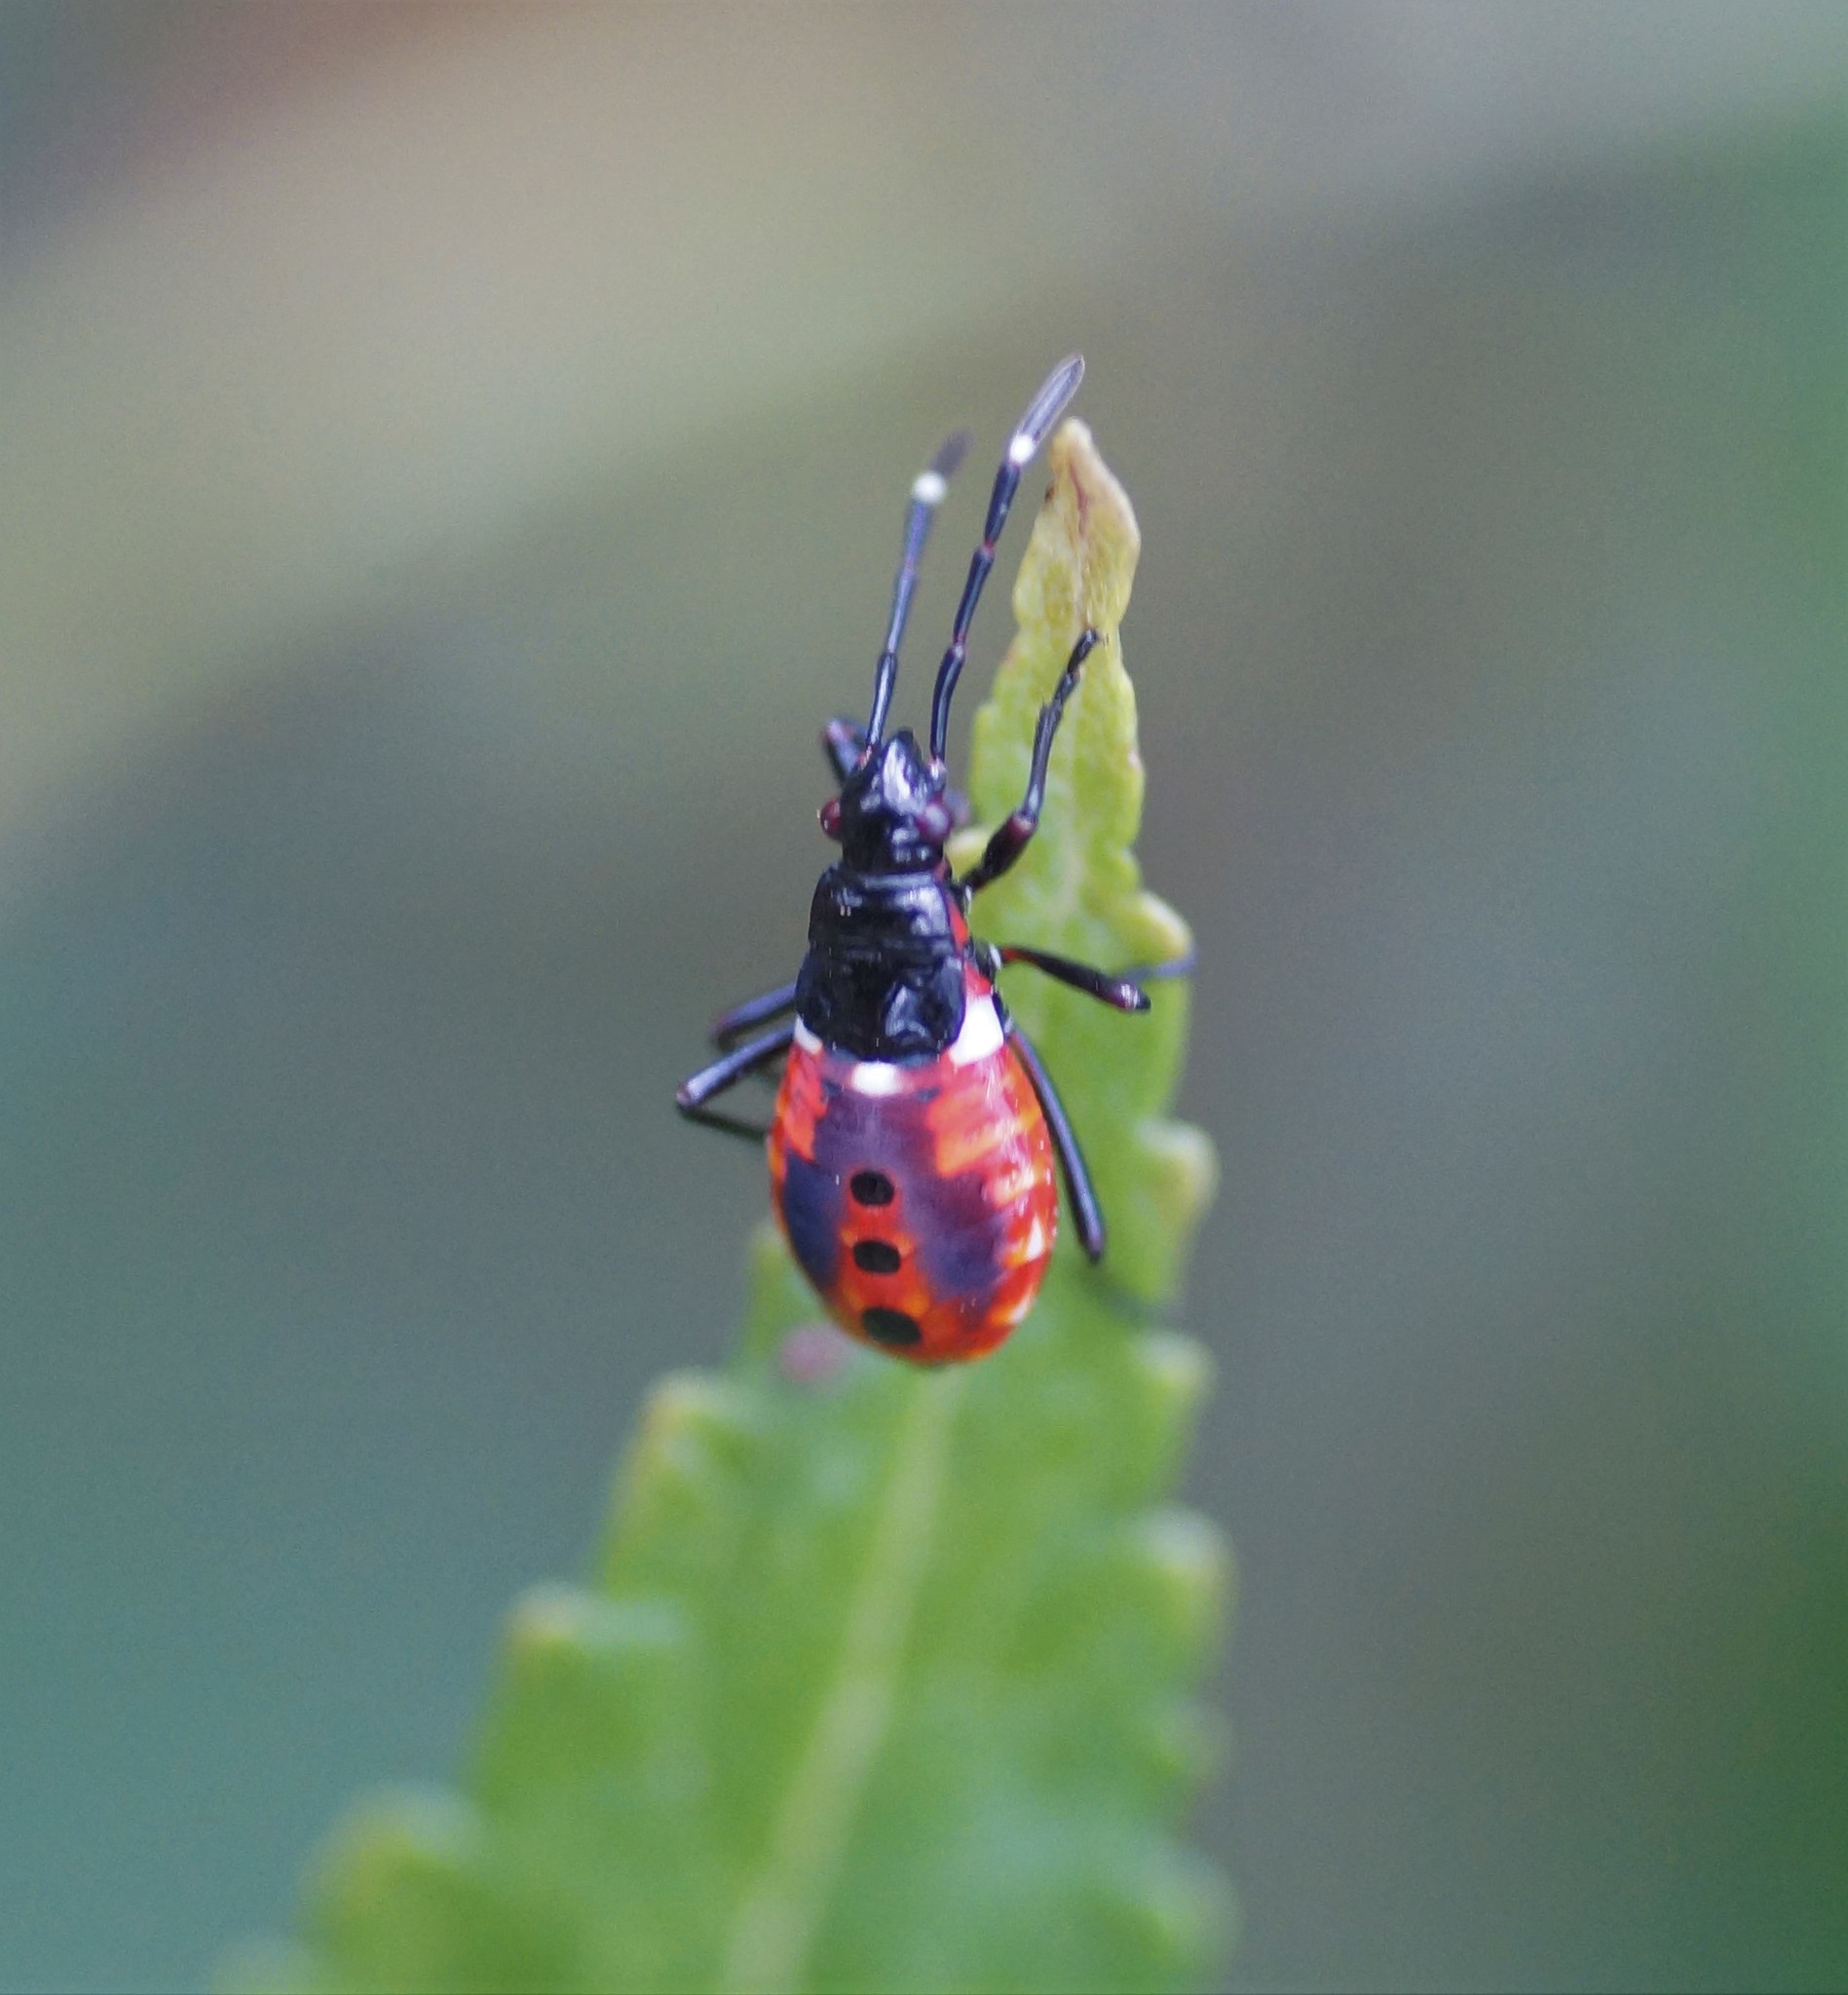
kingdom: Animalia
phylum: Arthropoda
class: Insecta
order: Hemiptera
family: Pyrrhocoridae
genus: Dindymus
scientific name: Dindymus
